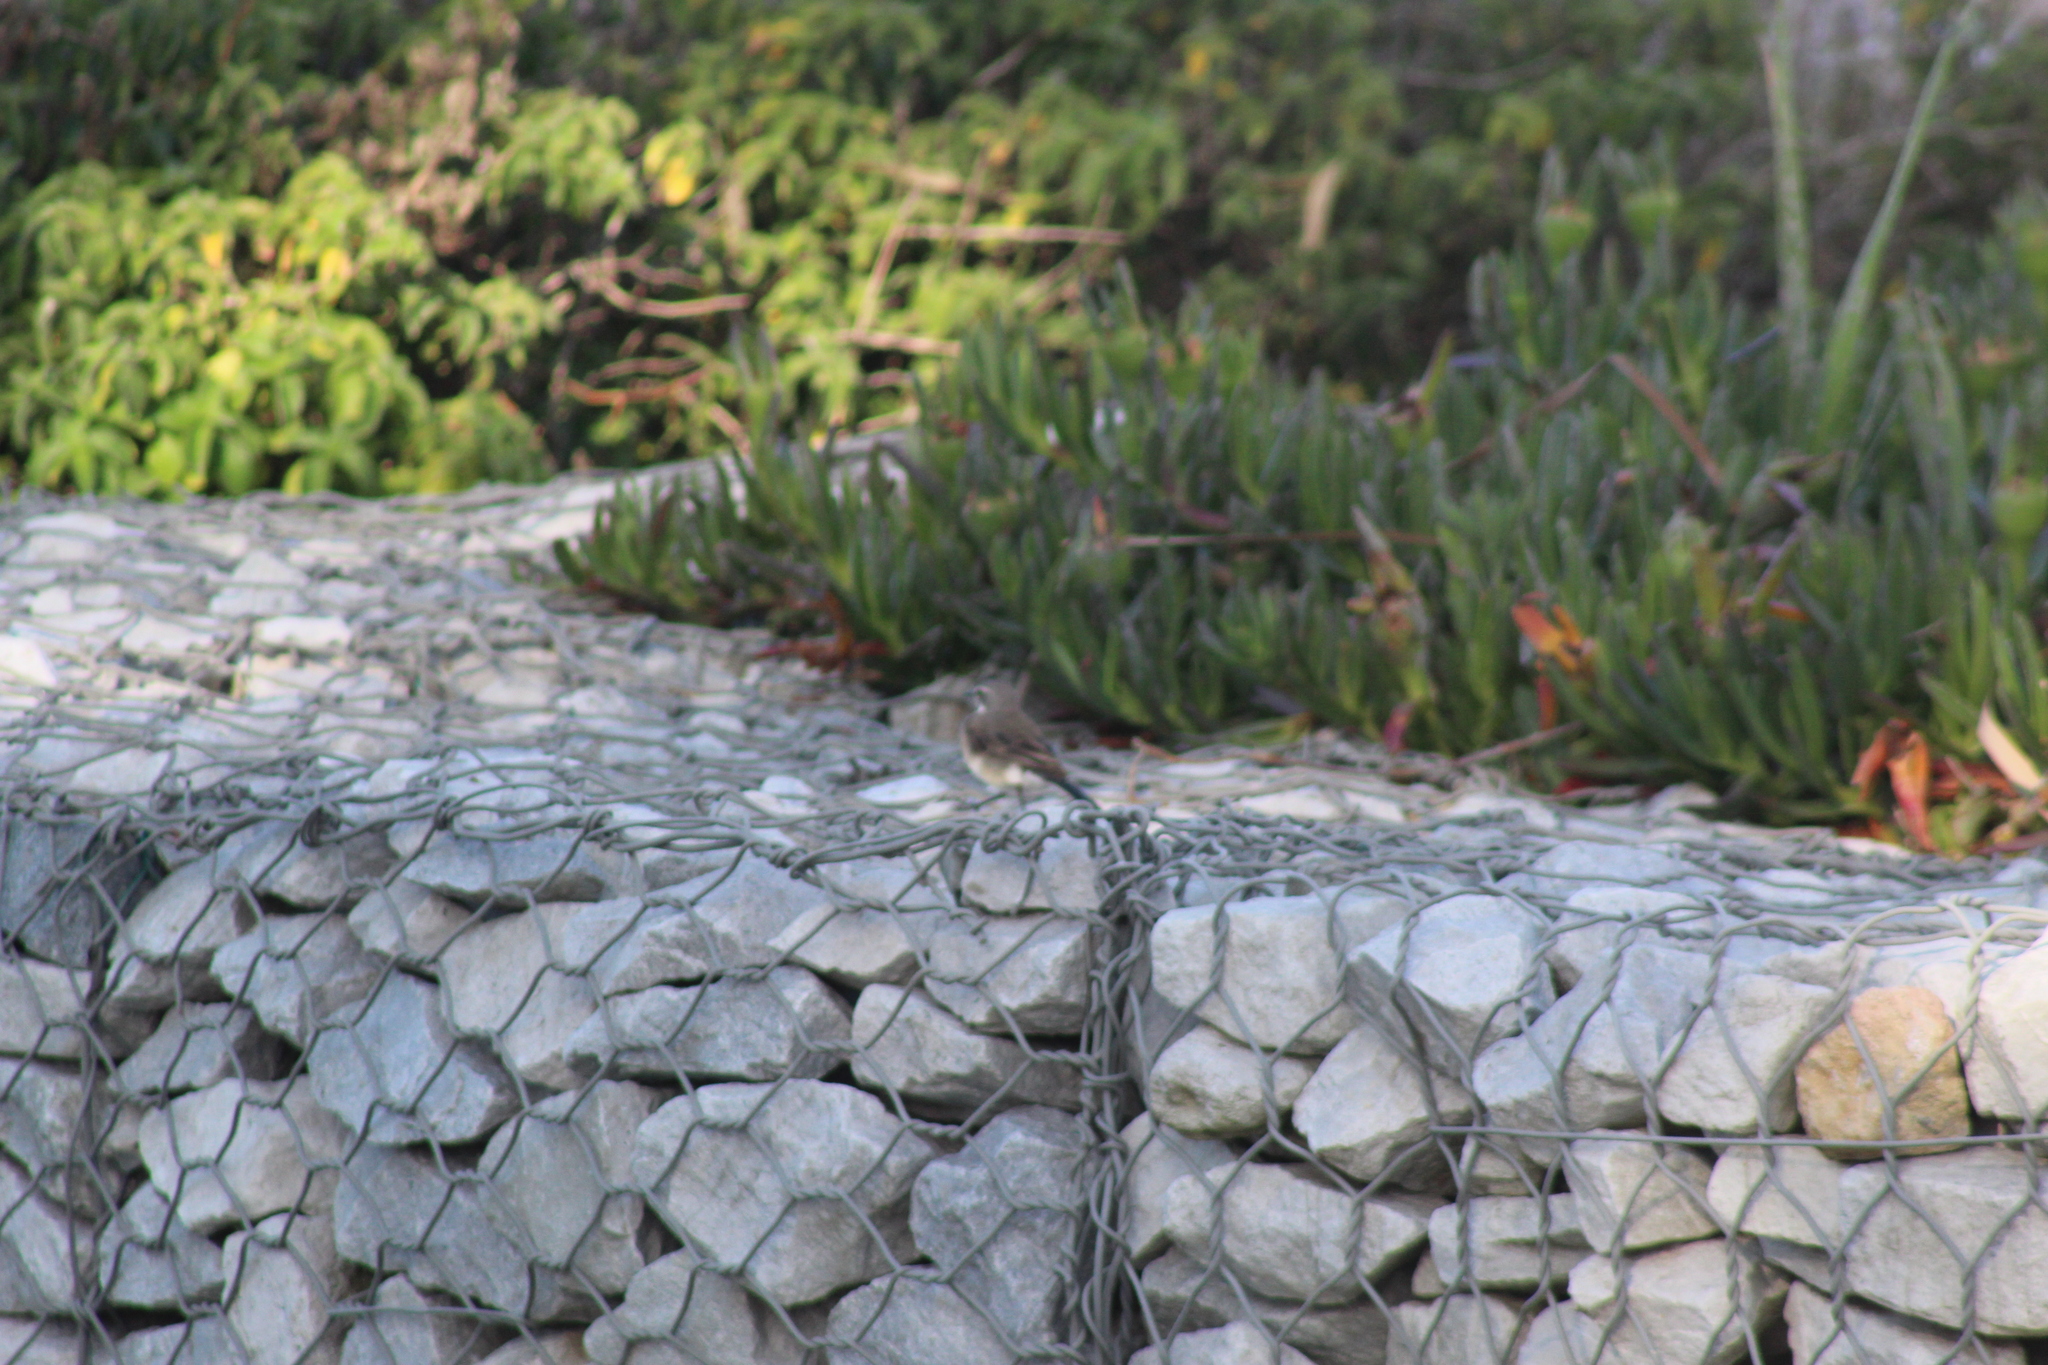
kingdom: Animalia
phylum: Chordata
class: Aves
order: Passeriformes
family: Motacillidae
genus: Motacilla
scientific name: Motacilla capensis
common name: Cape wagtail
